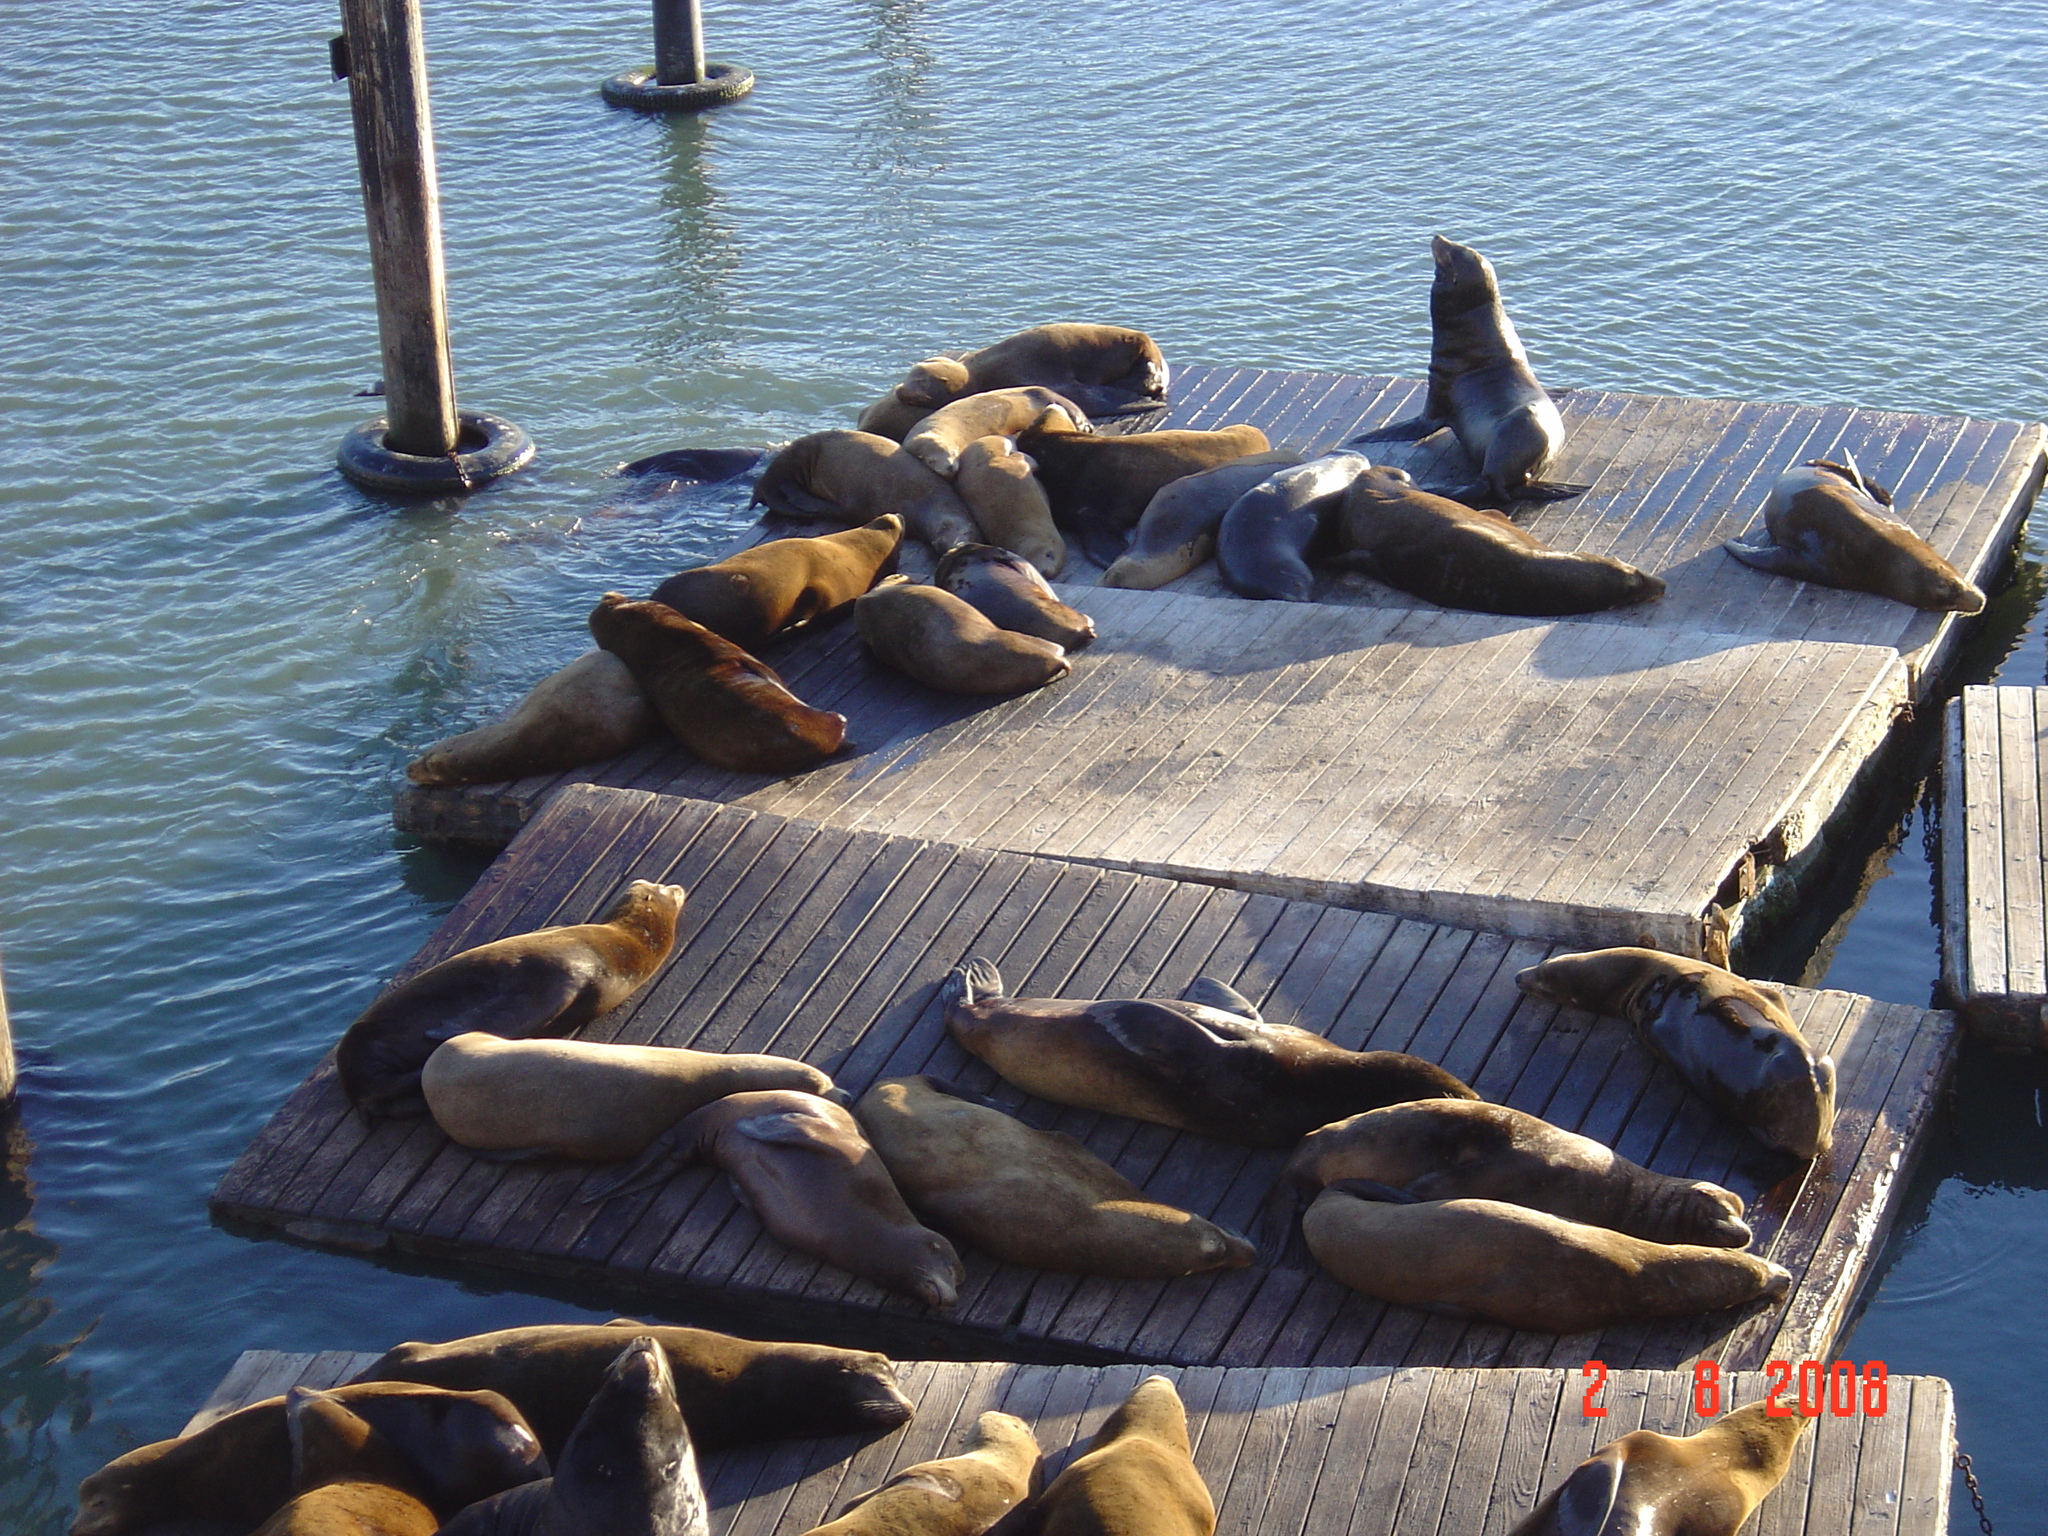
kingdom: Animalia
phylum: Chordata
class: Mammalia
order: Carnivora
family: Otariidae
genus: Zalophus
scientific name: Zalophus californianus
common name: California sea lion
